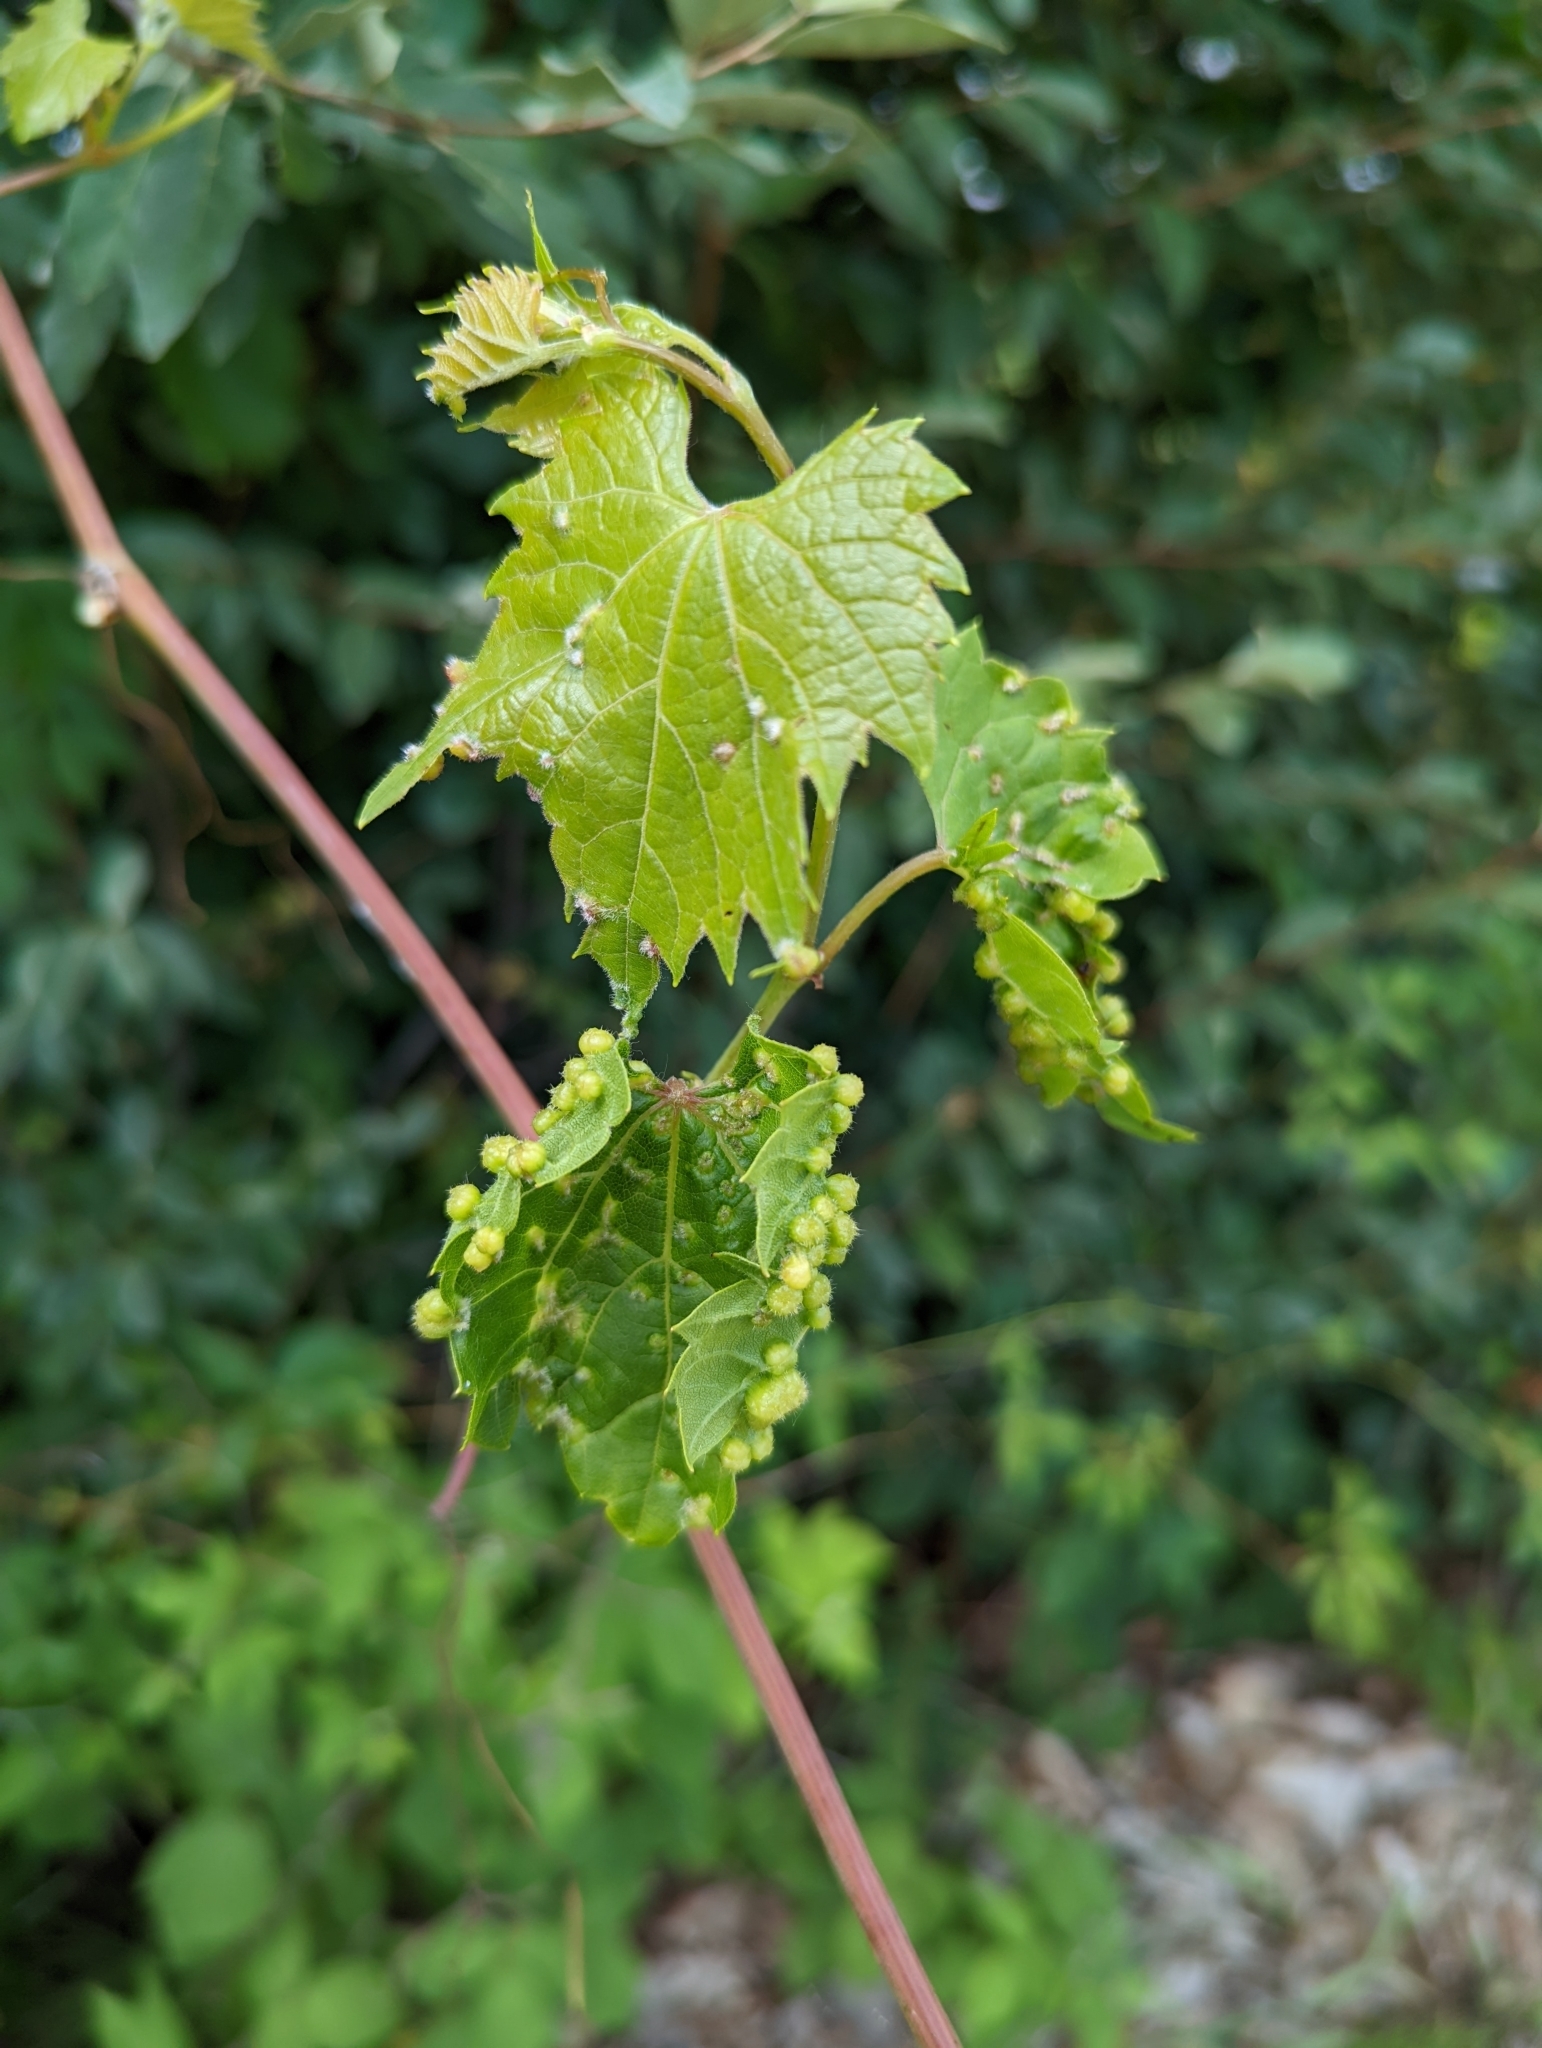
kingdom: Animalia
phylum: Arthropoda
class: Insecta
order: Hemiptera
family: Phylloxeridae
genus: Daktulosphaira
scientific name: Daktulosphaira vitifoliae
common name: Grape phylloxera
